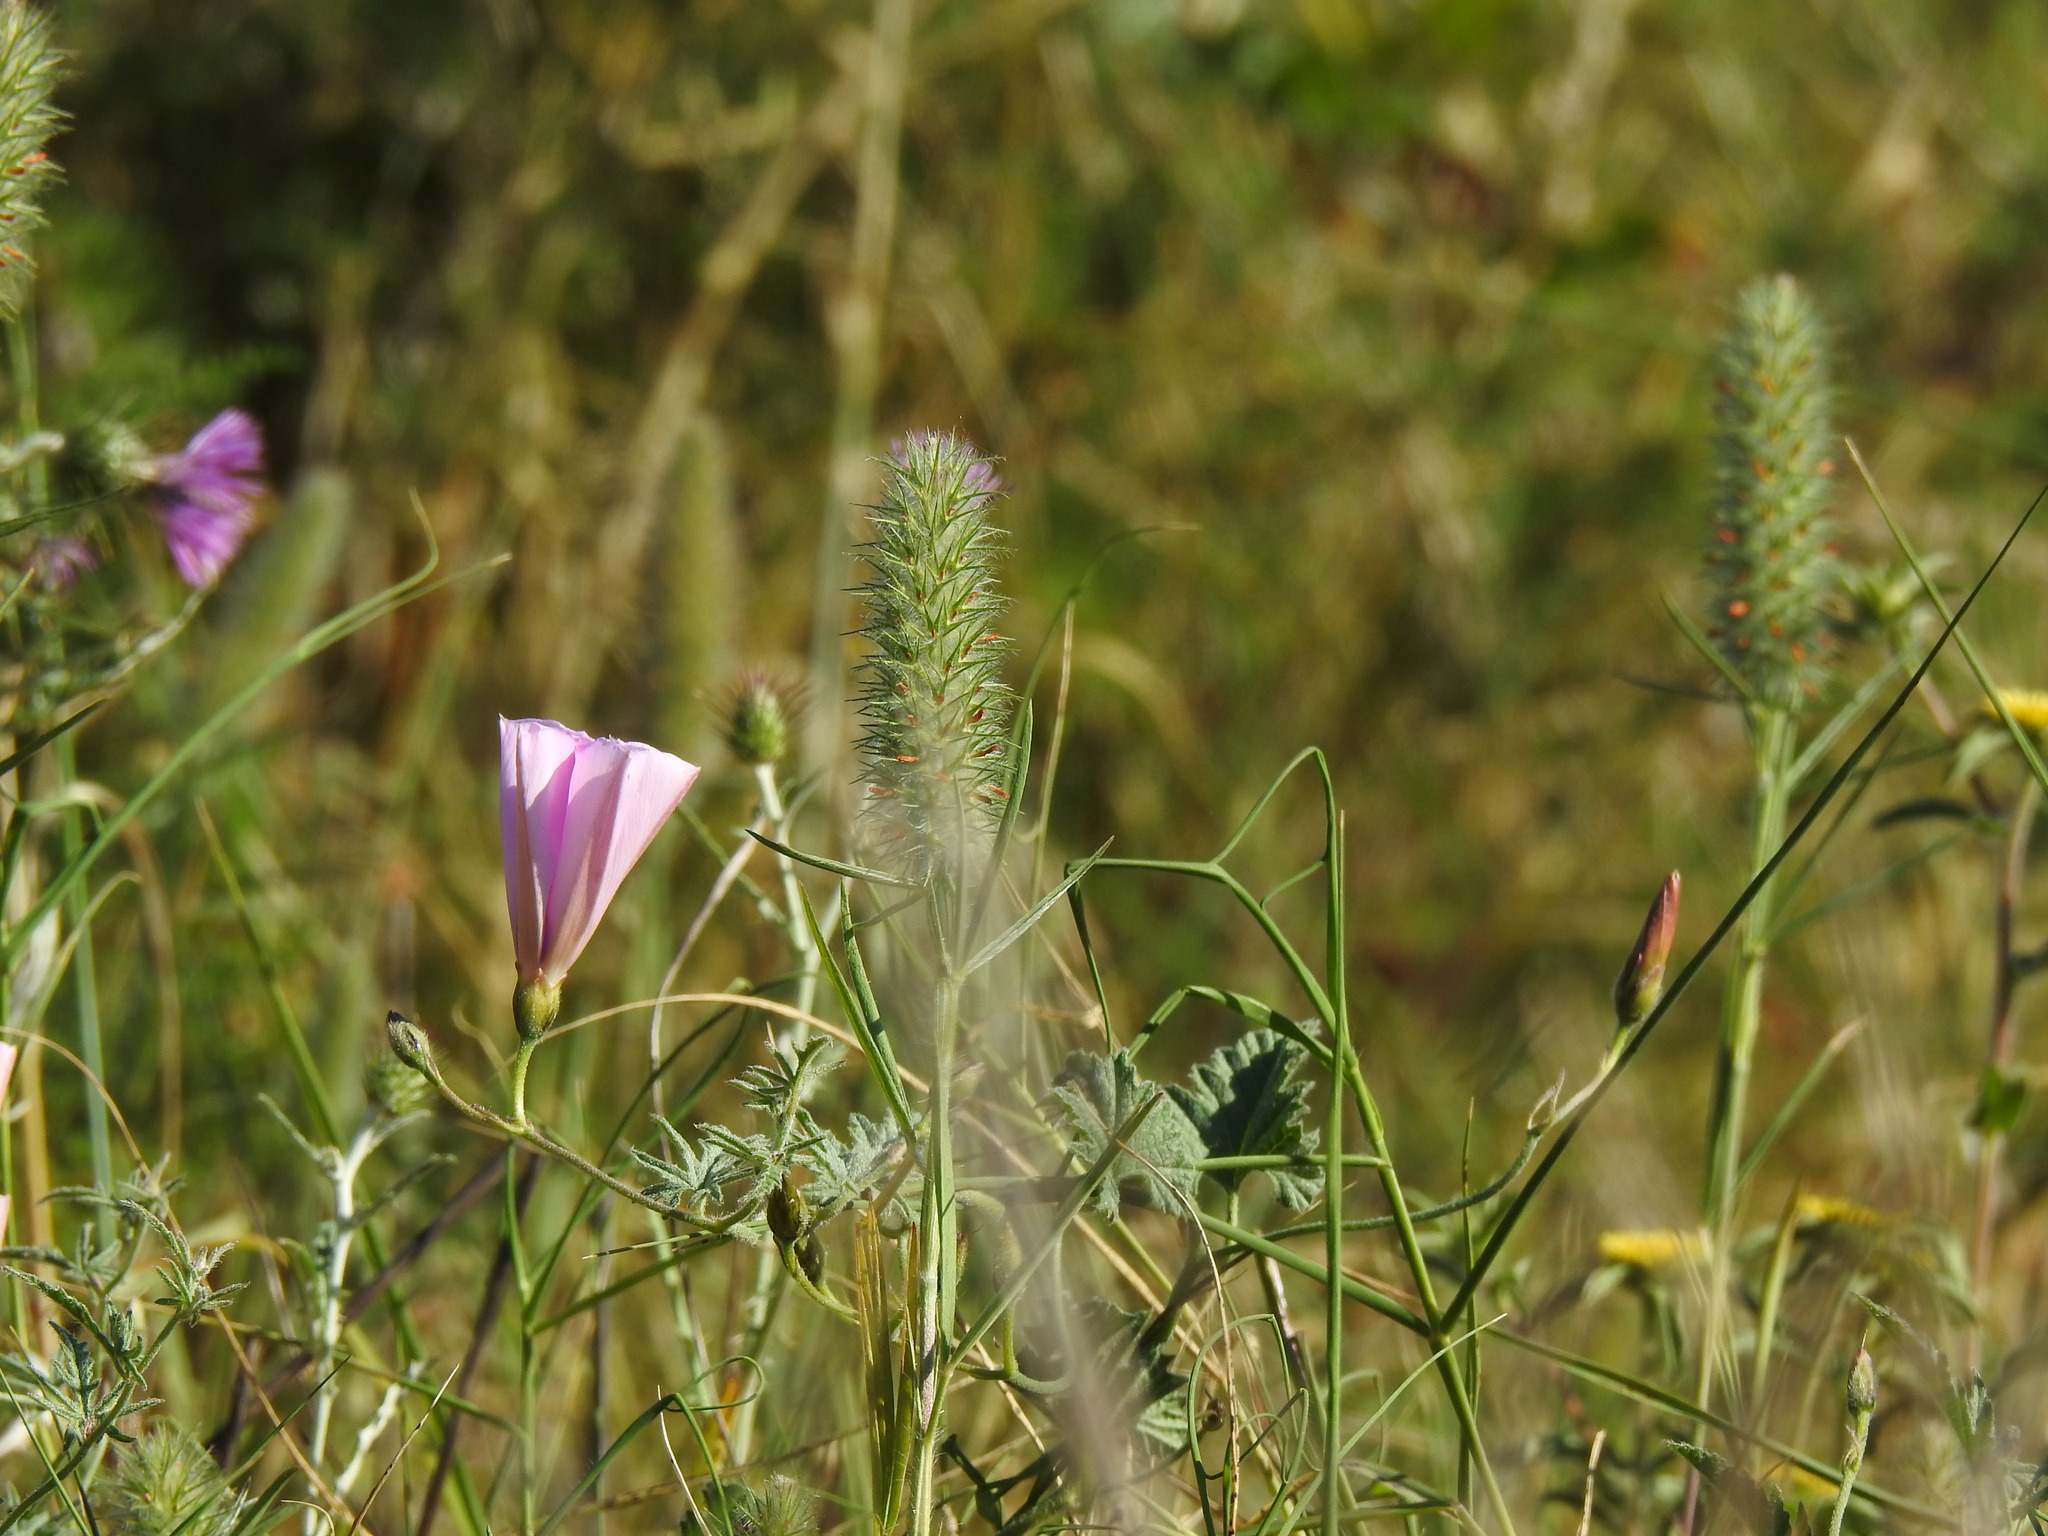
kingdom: Plantae
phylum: Tracheophyta
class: Magnoliopsida
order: Fabales
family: Fabaceae
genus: Trifolium
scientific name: Trifolium angustifolium
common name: Narrow clover
